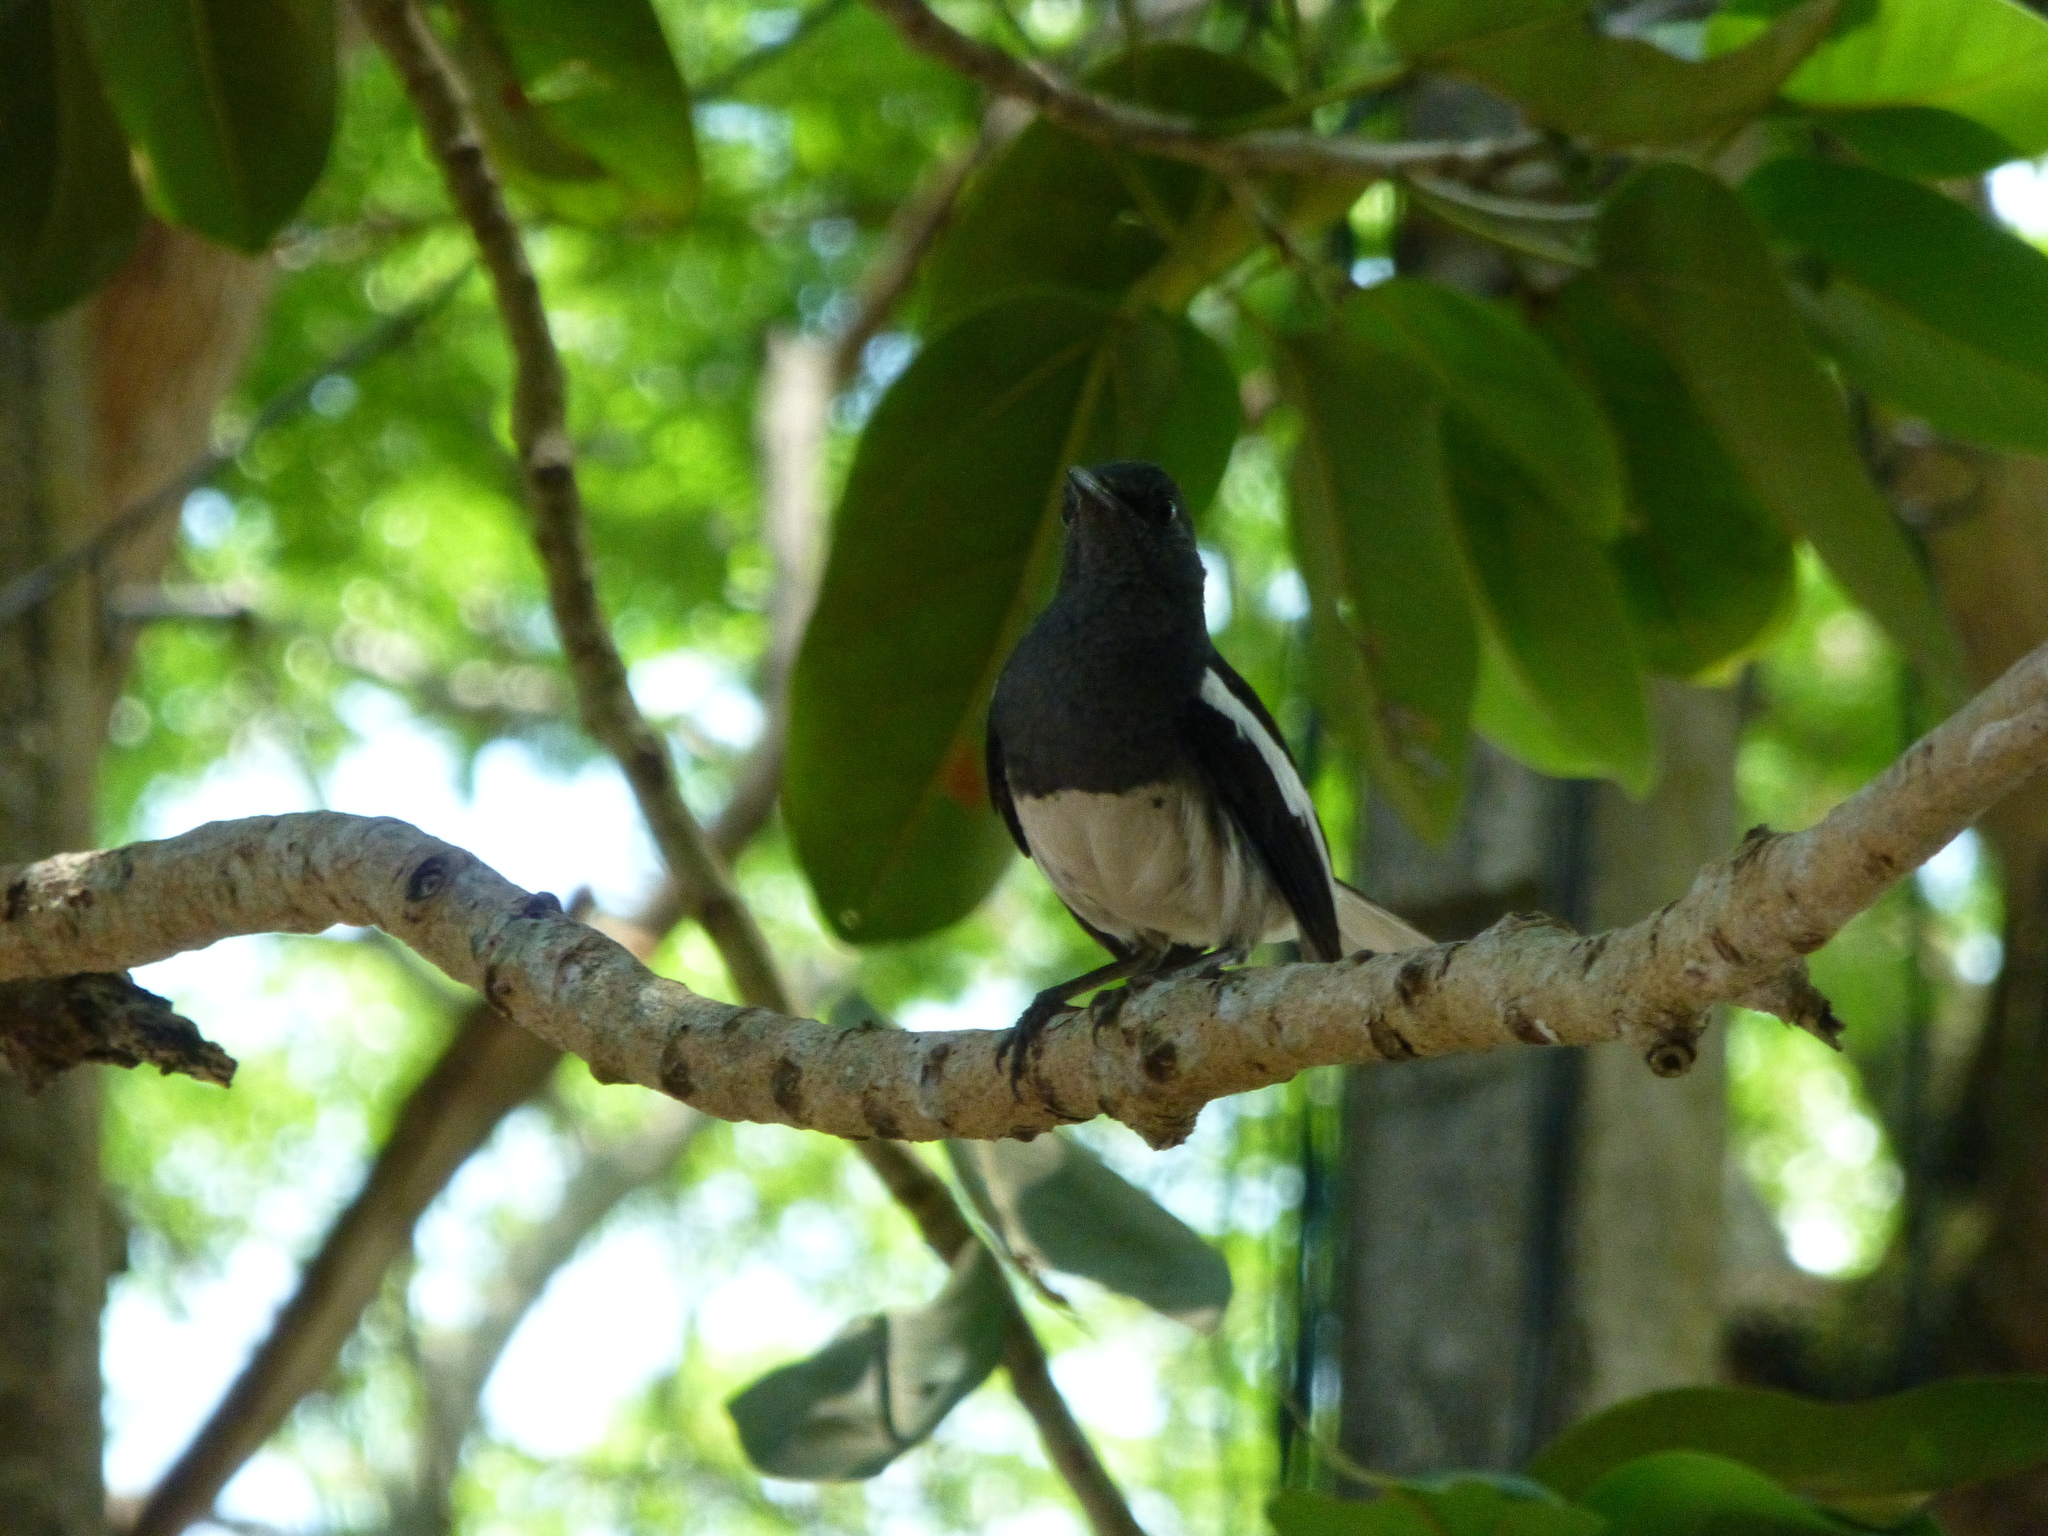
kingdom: Animalia
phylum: Chordata
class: Aves
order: Passeriformes
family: Muscicapidae
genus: Copsychus
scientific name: Copsychus saularis
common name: Oriental magpie-robin
